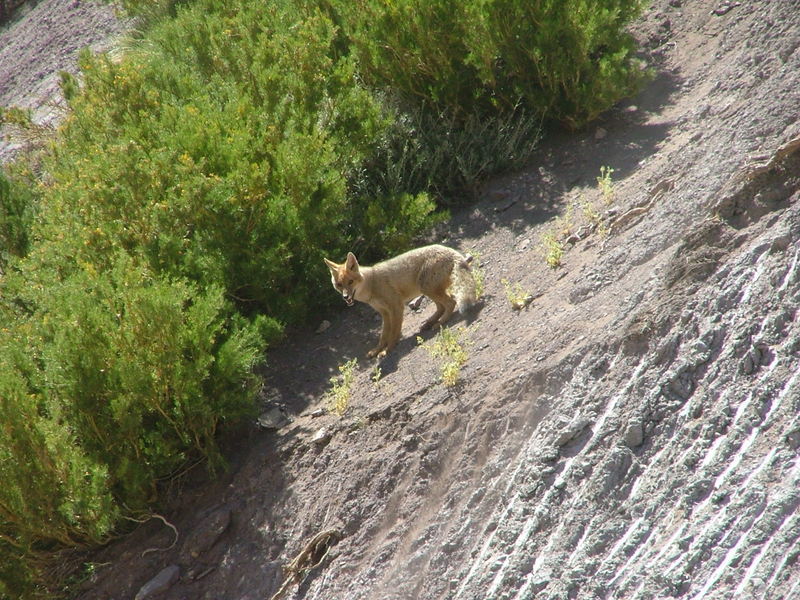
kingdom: Animalia
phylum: Chordata
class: Mammalia
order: Carnivora
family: Canidae
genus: Lycalopex
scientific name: Lycalopex culpaeus
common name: Culpeo
